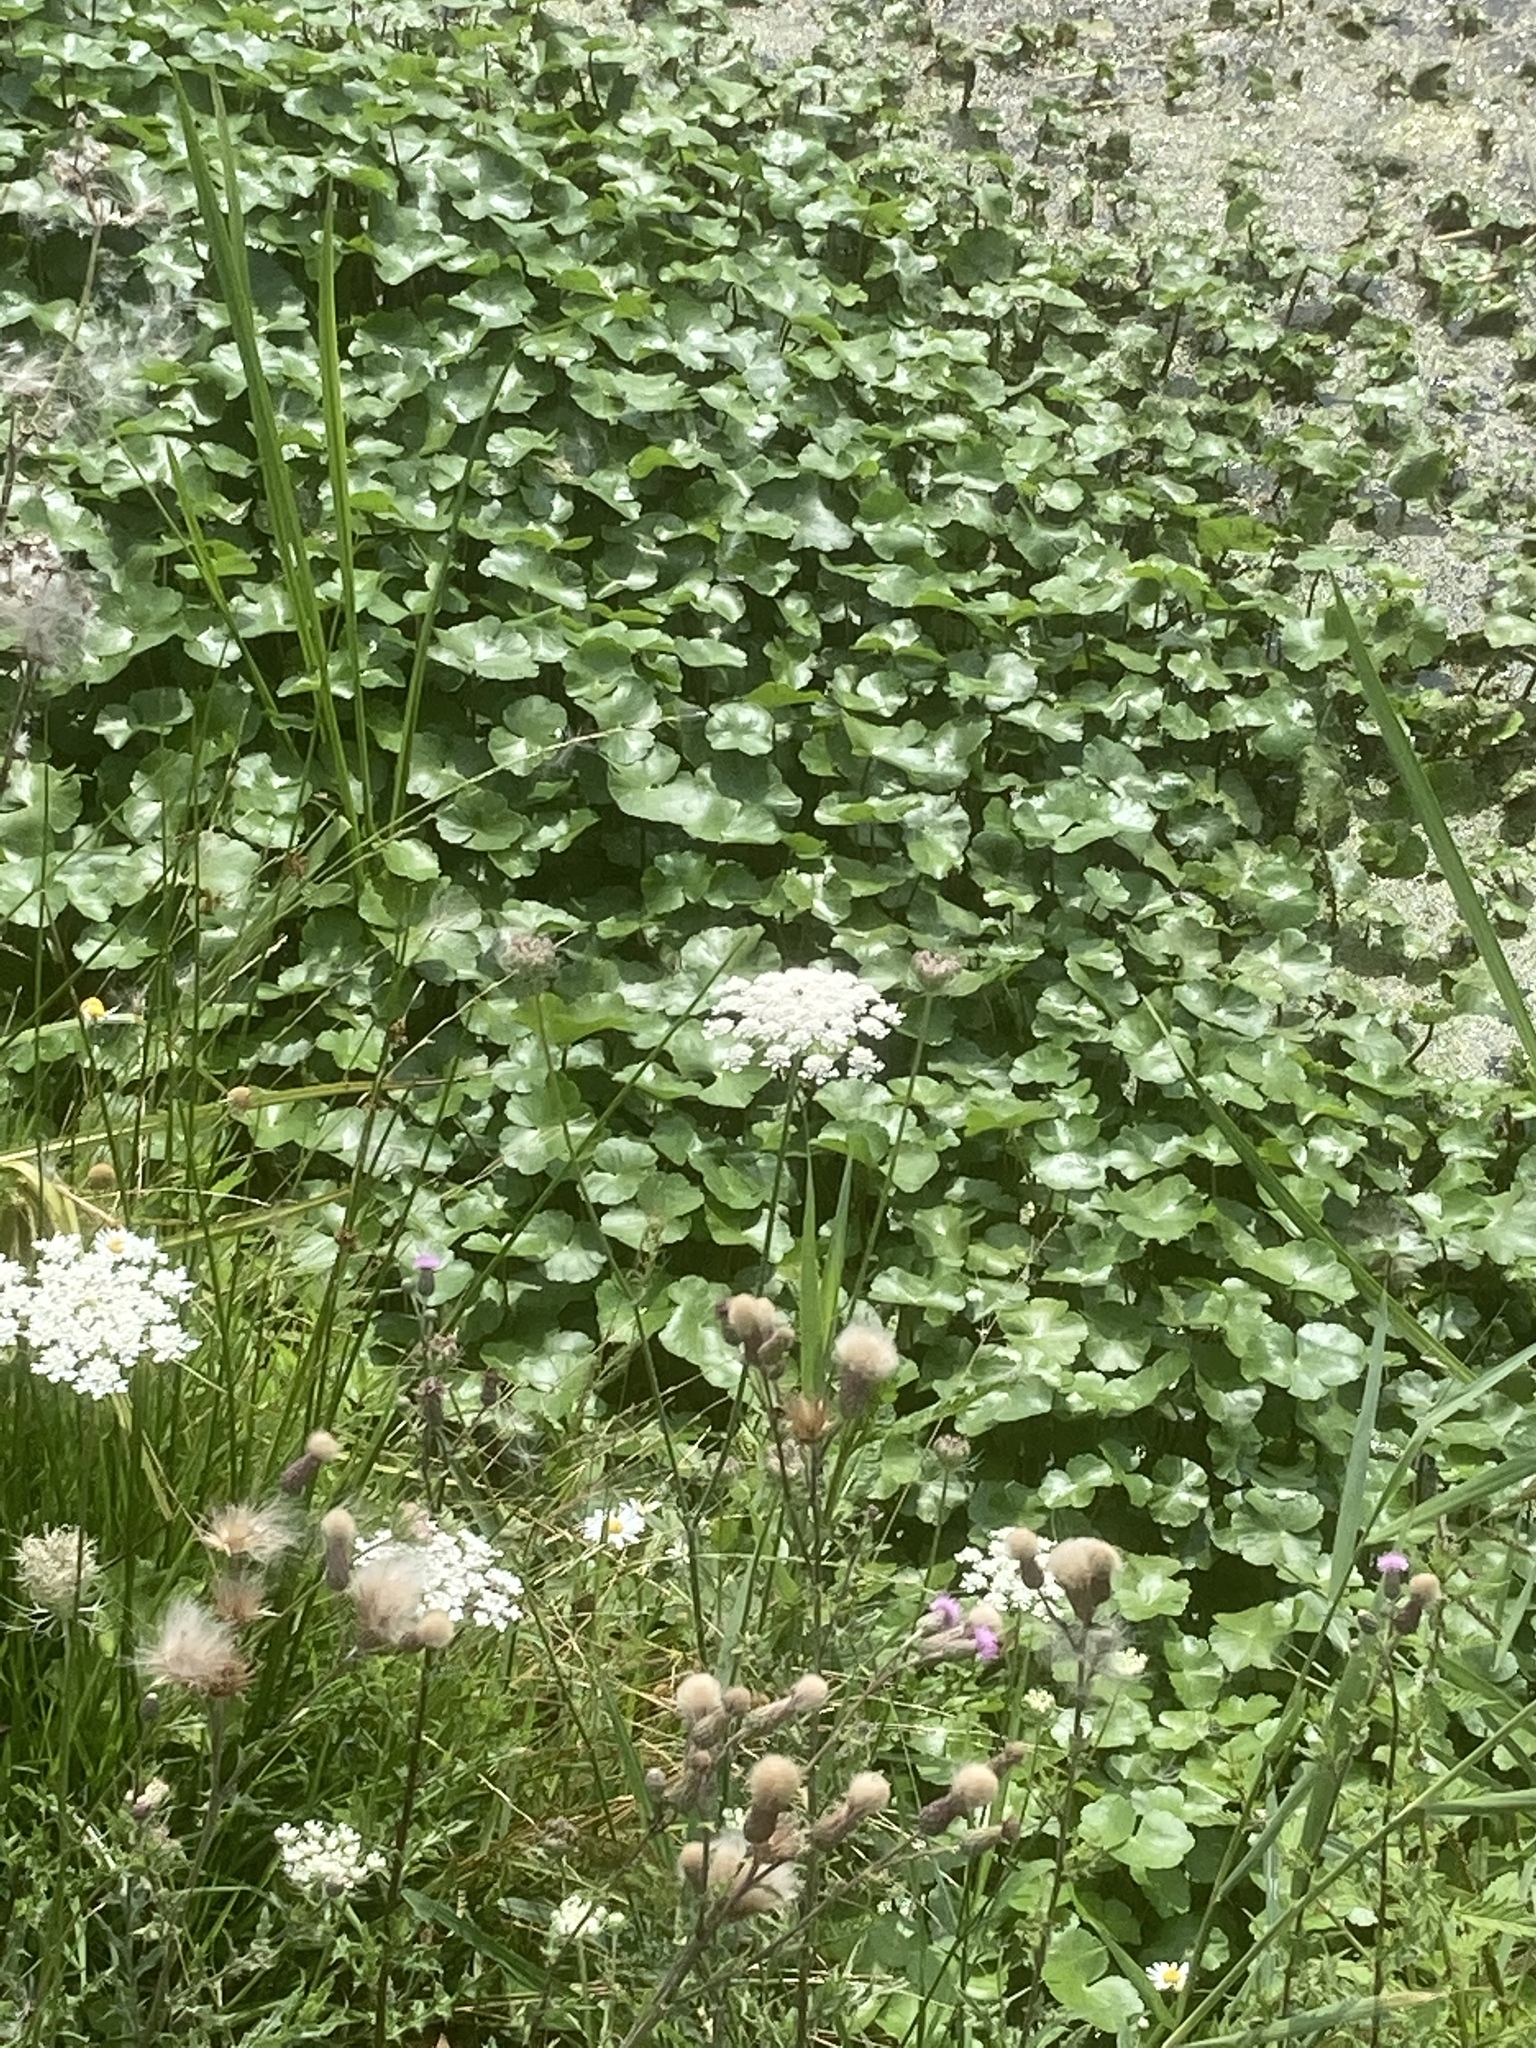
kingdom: Plantae
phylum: Tracheophyta
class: Magnoliopsida
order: Apiales
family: Araliaceae
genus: Hydrocotyle
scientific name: Hydrocotyle ranunculoides
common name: Floating pennywort
